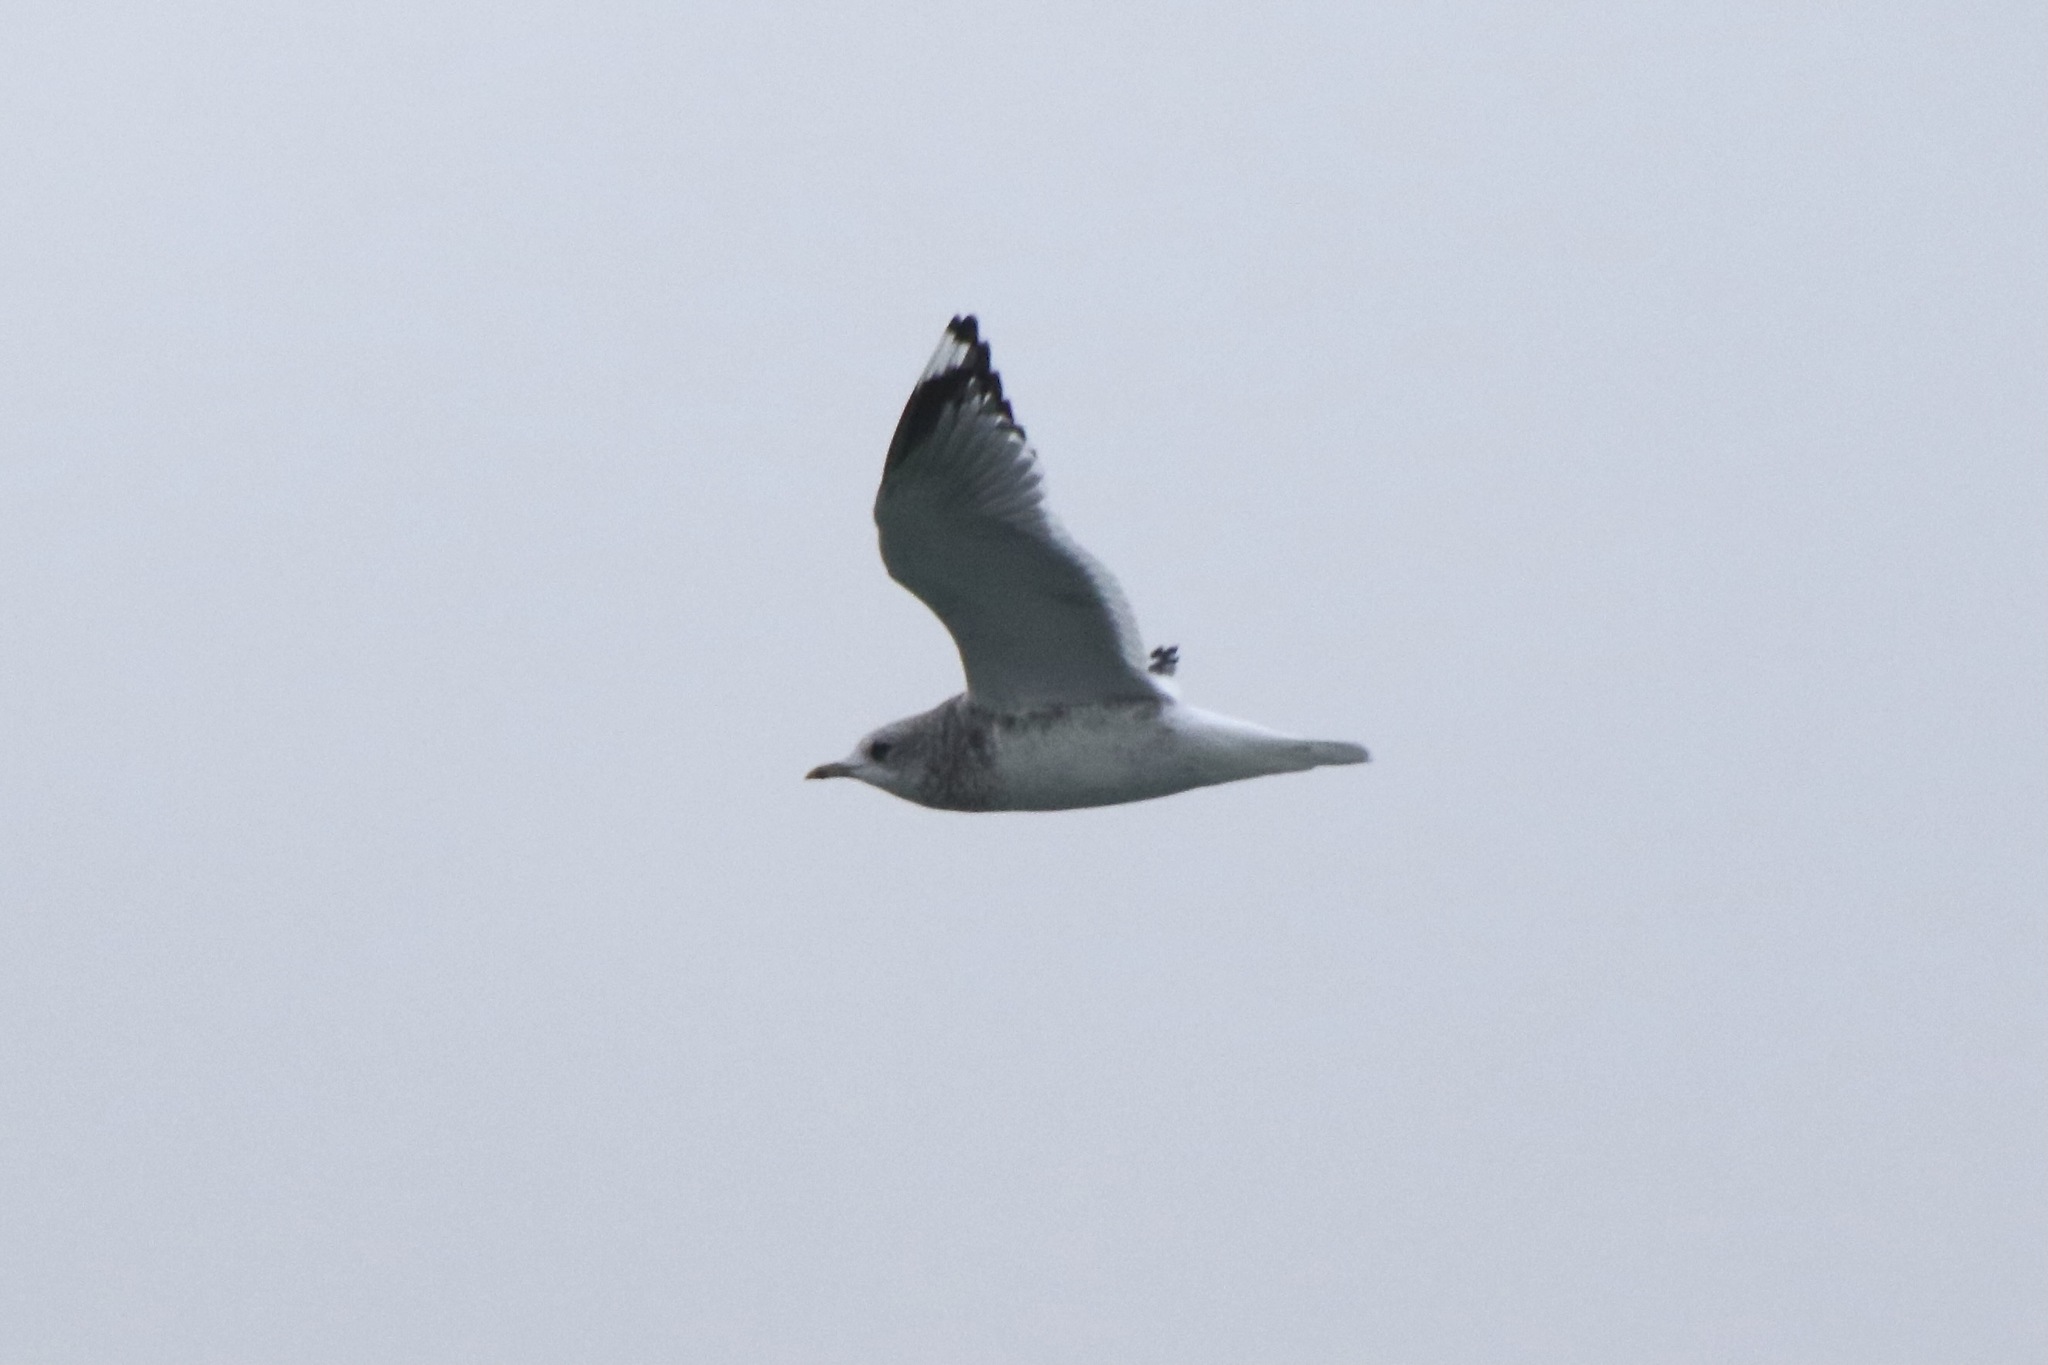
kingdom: Animalia
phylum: Chordata
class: Aves
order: Charadriiformes
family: Laridae
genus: Larus
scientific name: Larus brachyrhynchus
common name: Short-billed gull
